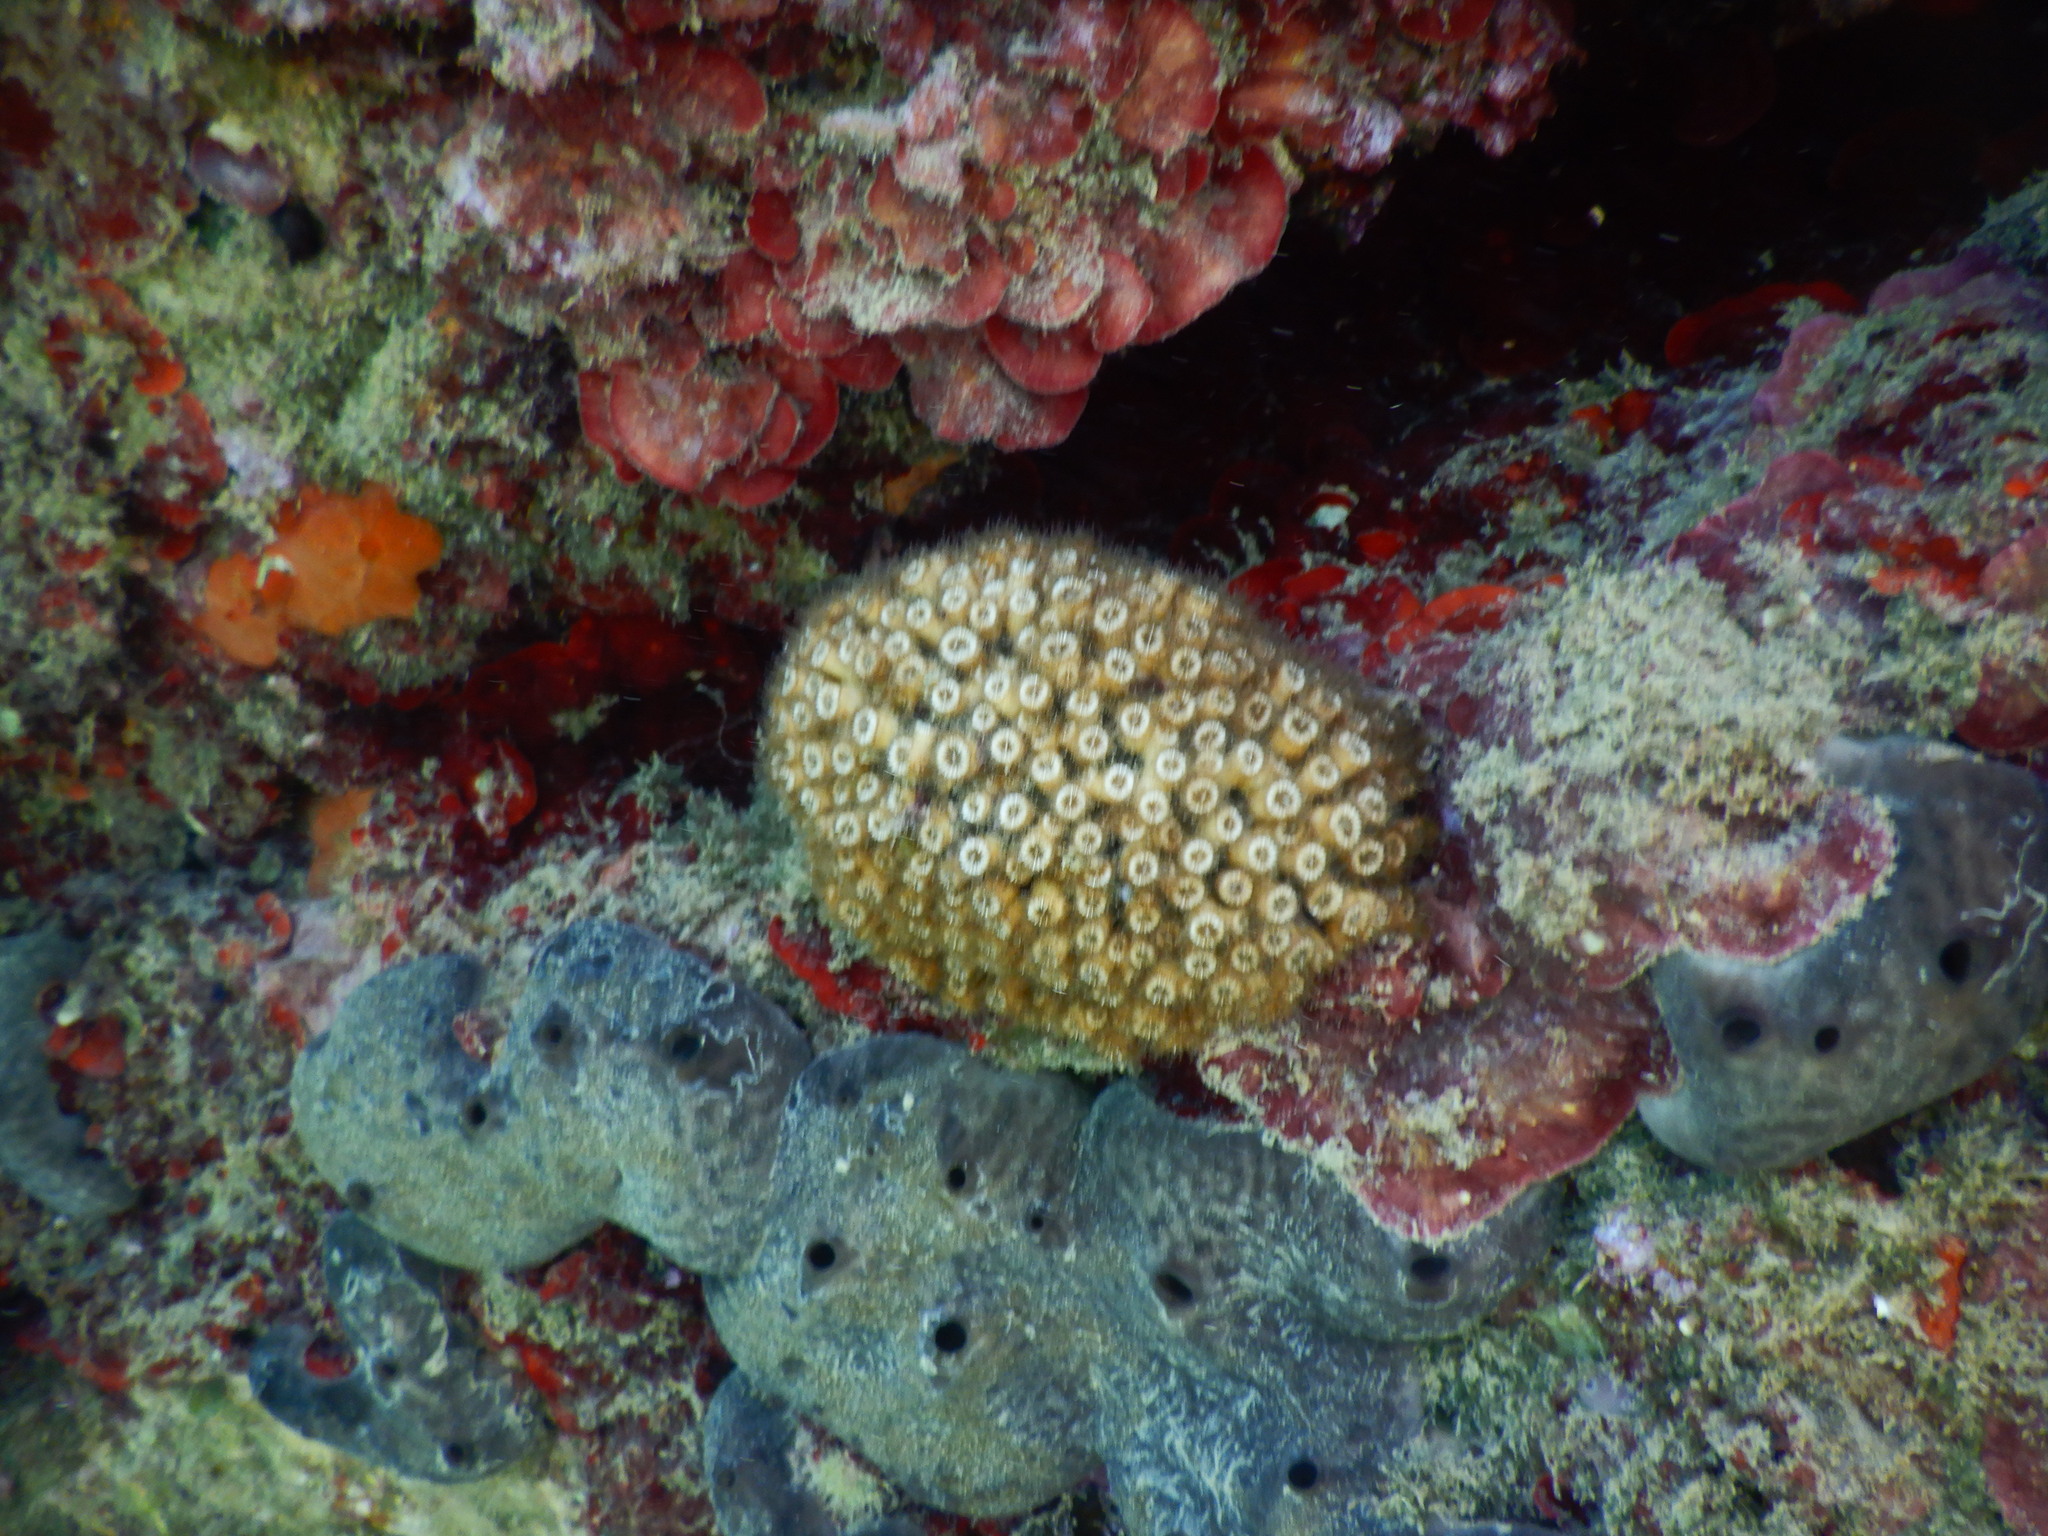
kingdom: Animalia
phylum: Cnidaria
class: Anthozoa
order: Scleractinia
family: Cladocoridae
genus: Cladocora
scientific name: Cladocora caespitosa
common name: Cladocora
